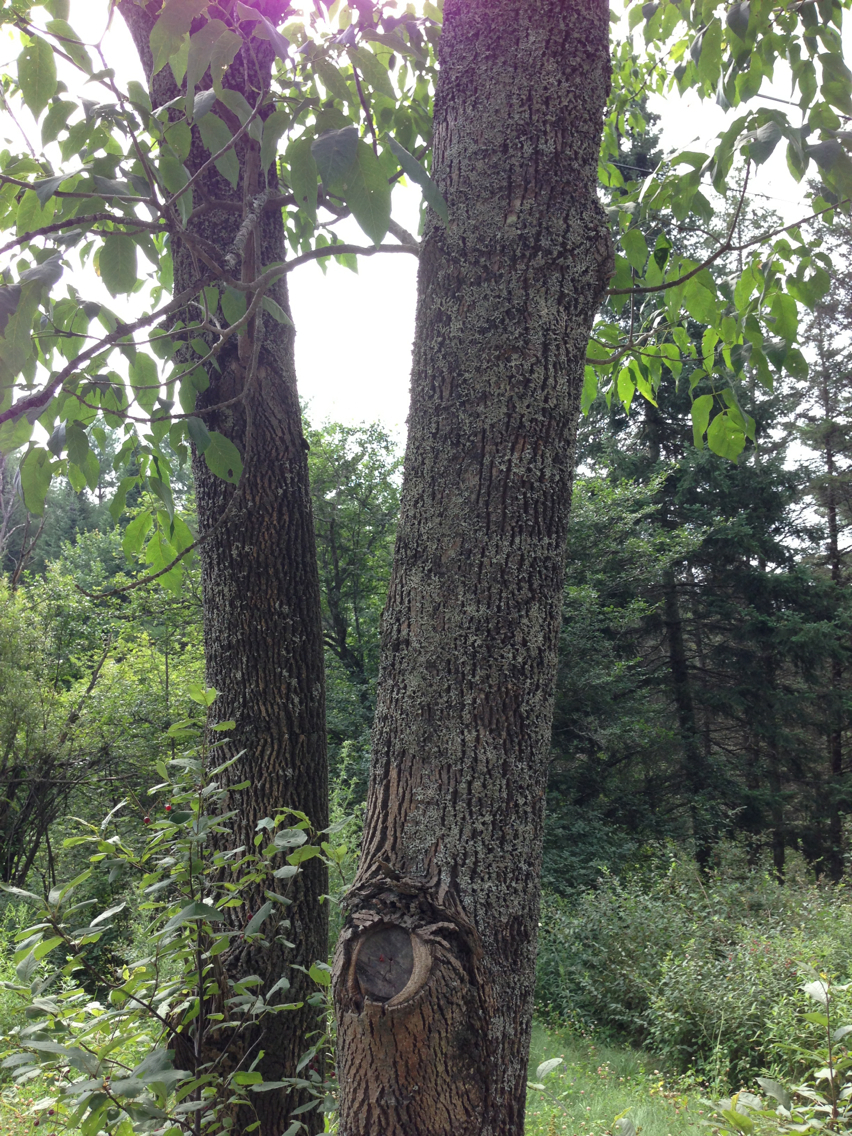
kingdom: Plantae
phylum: Tracheophyta
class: Magnoliopsida
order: Lamiales
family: Oleaceae
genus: Fraxinus
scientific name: Fraxinus americana
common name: White ash
